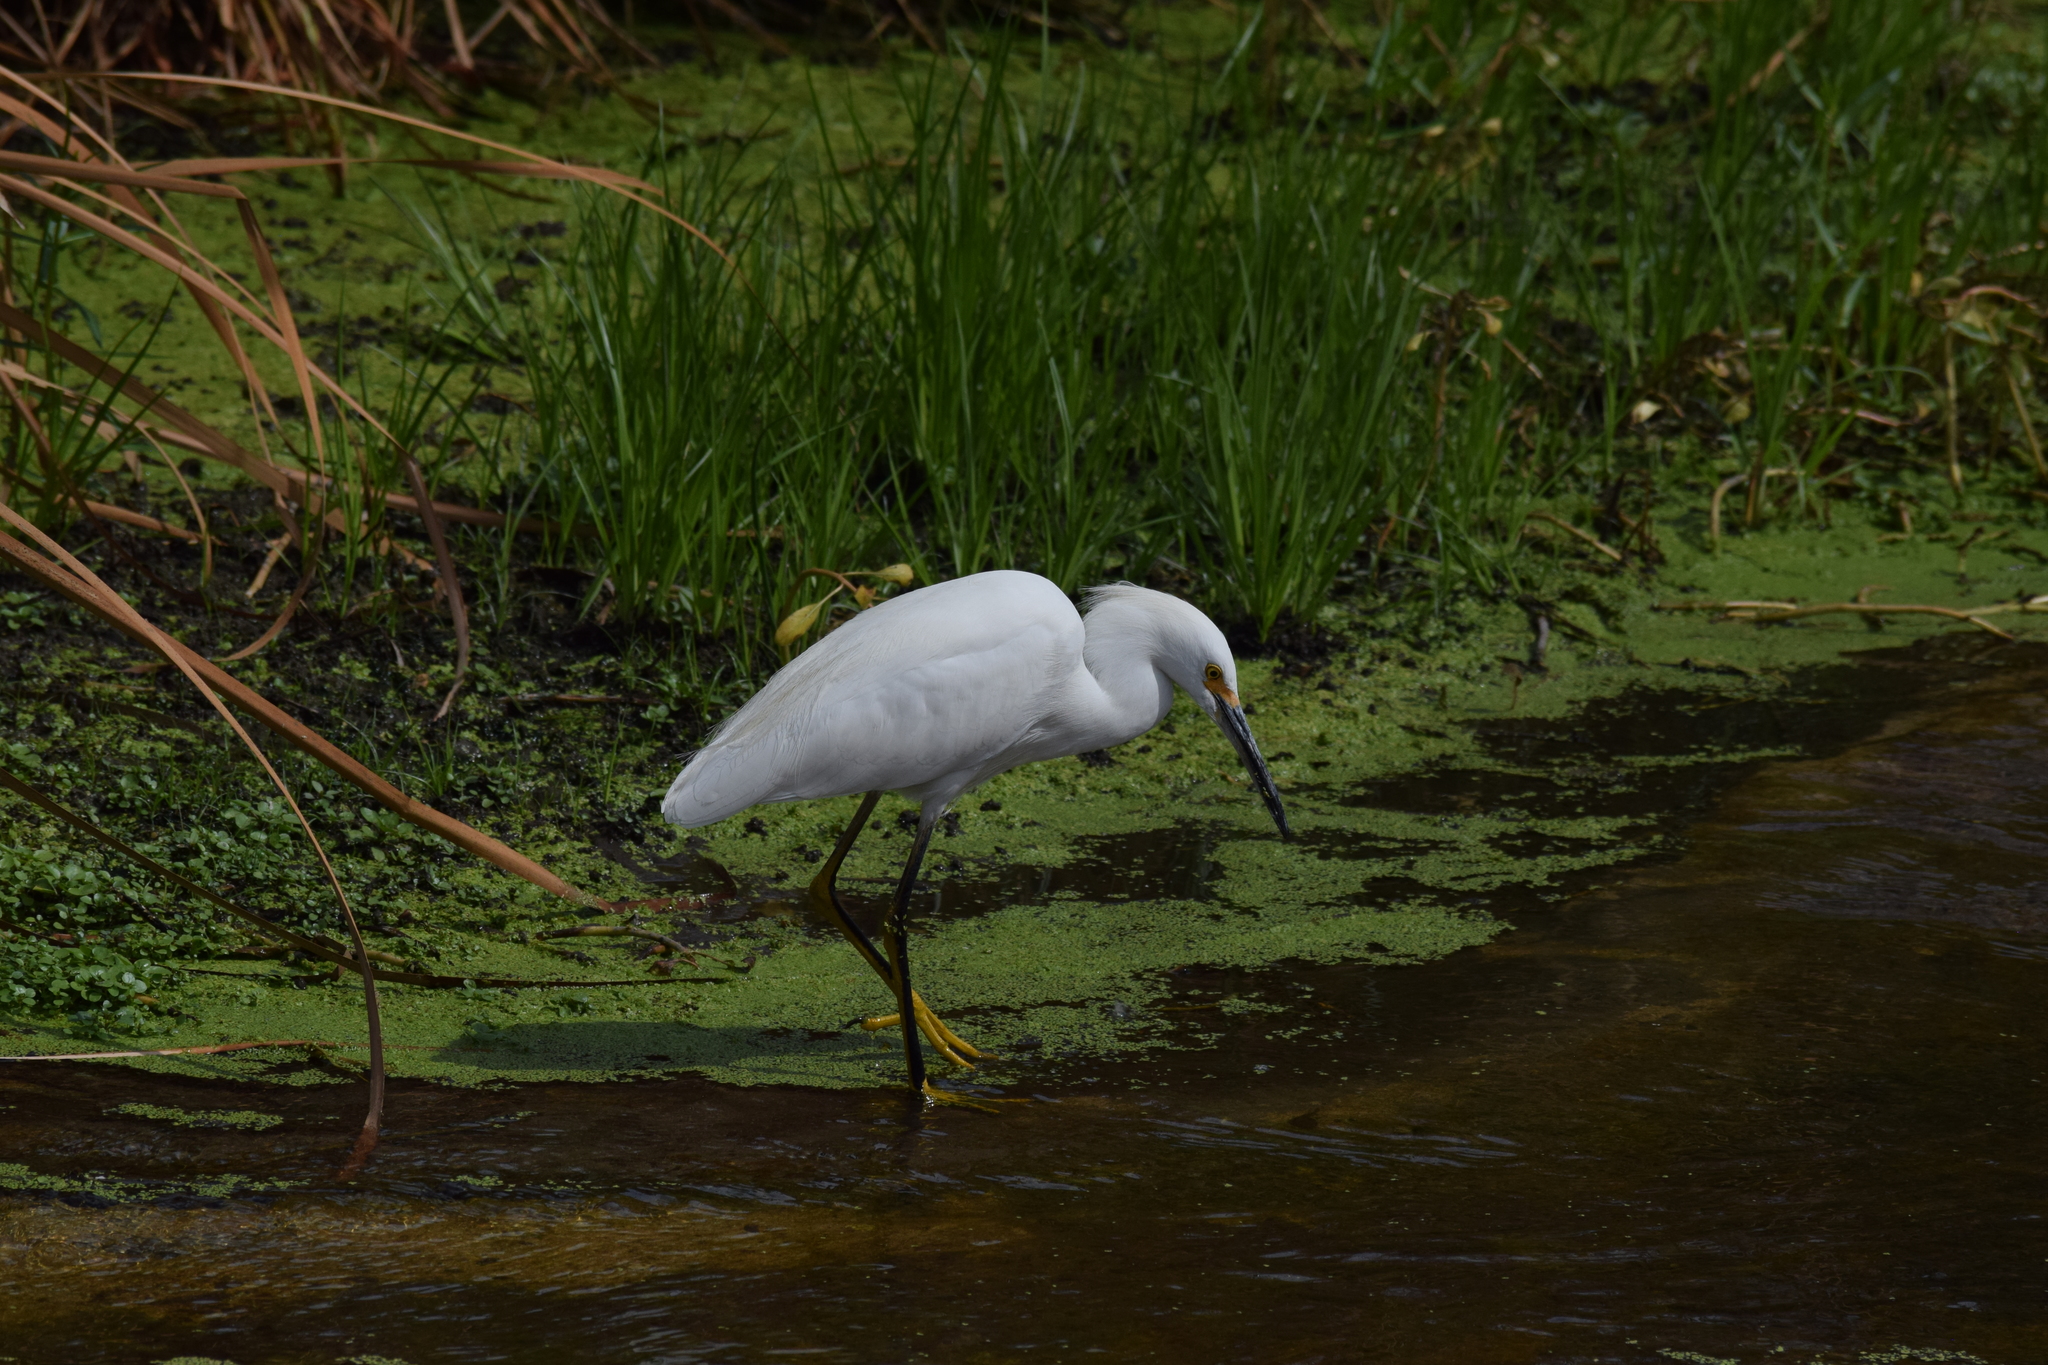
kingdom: Animalia
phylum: Chordata
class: Aves
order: Pelecaniformes
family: Ardeidae
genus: Egretta
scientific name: Egretta thula
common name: Snowy egret
